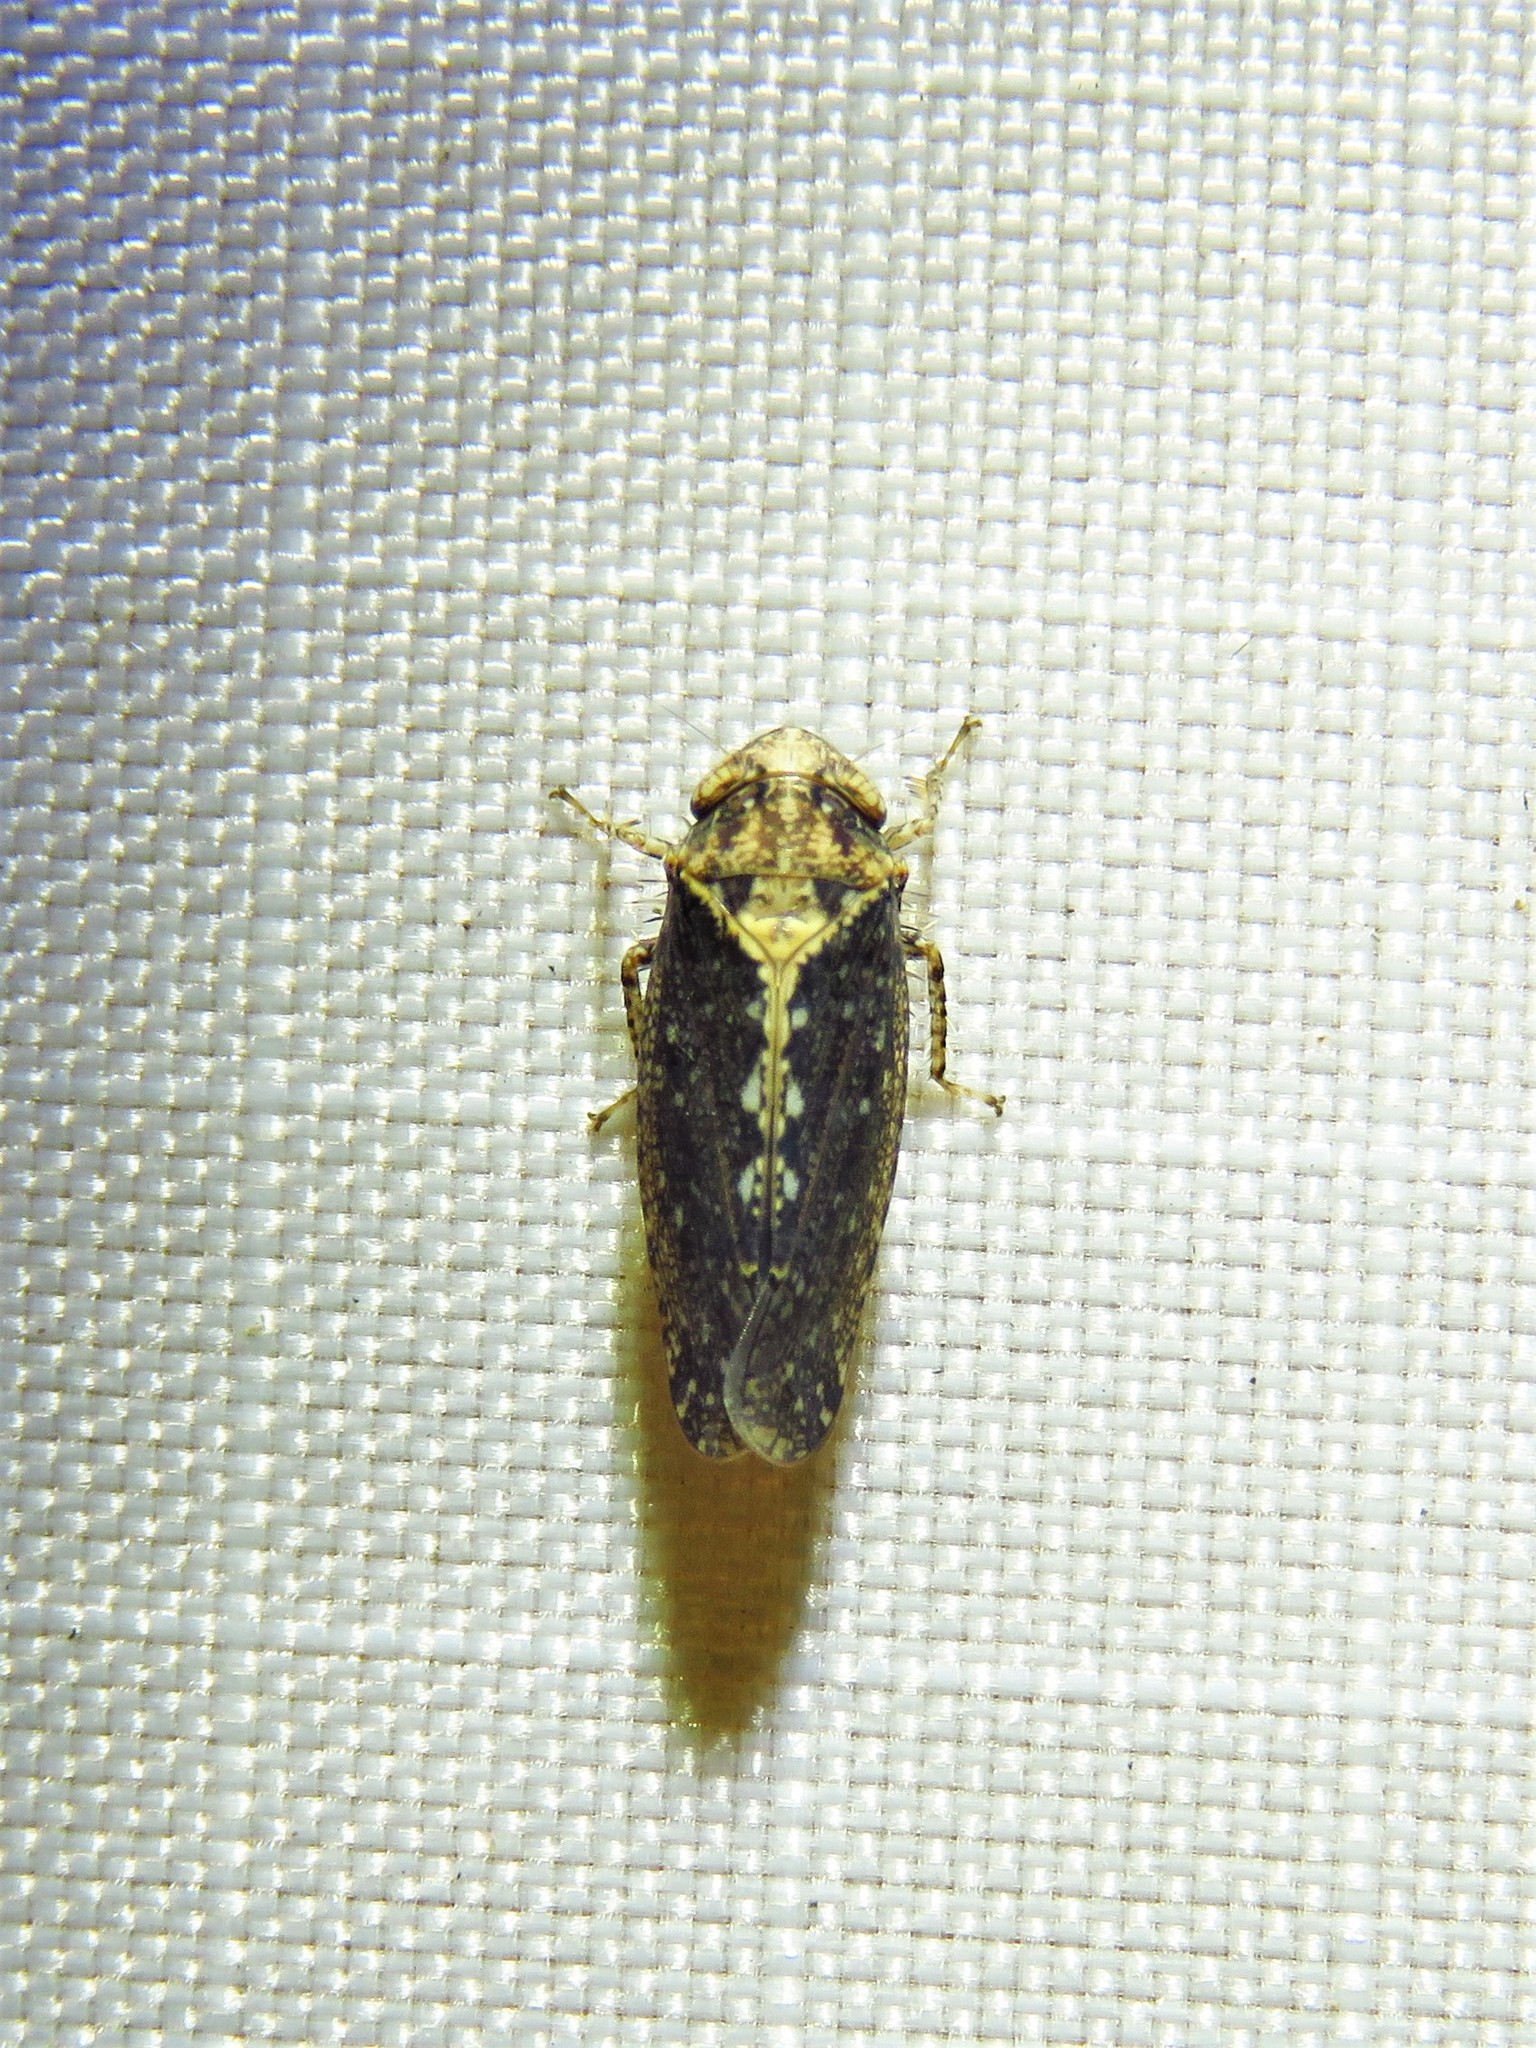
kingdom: Animalia
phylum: Arthropoda
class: Insecta
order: Hemiptera
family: Cicadellidae
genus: Excultanus
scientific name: Excultanus excultus
